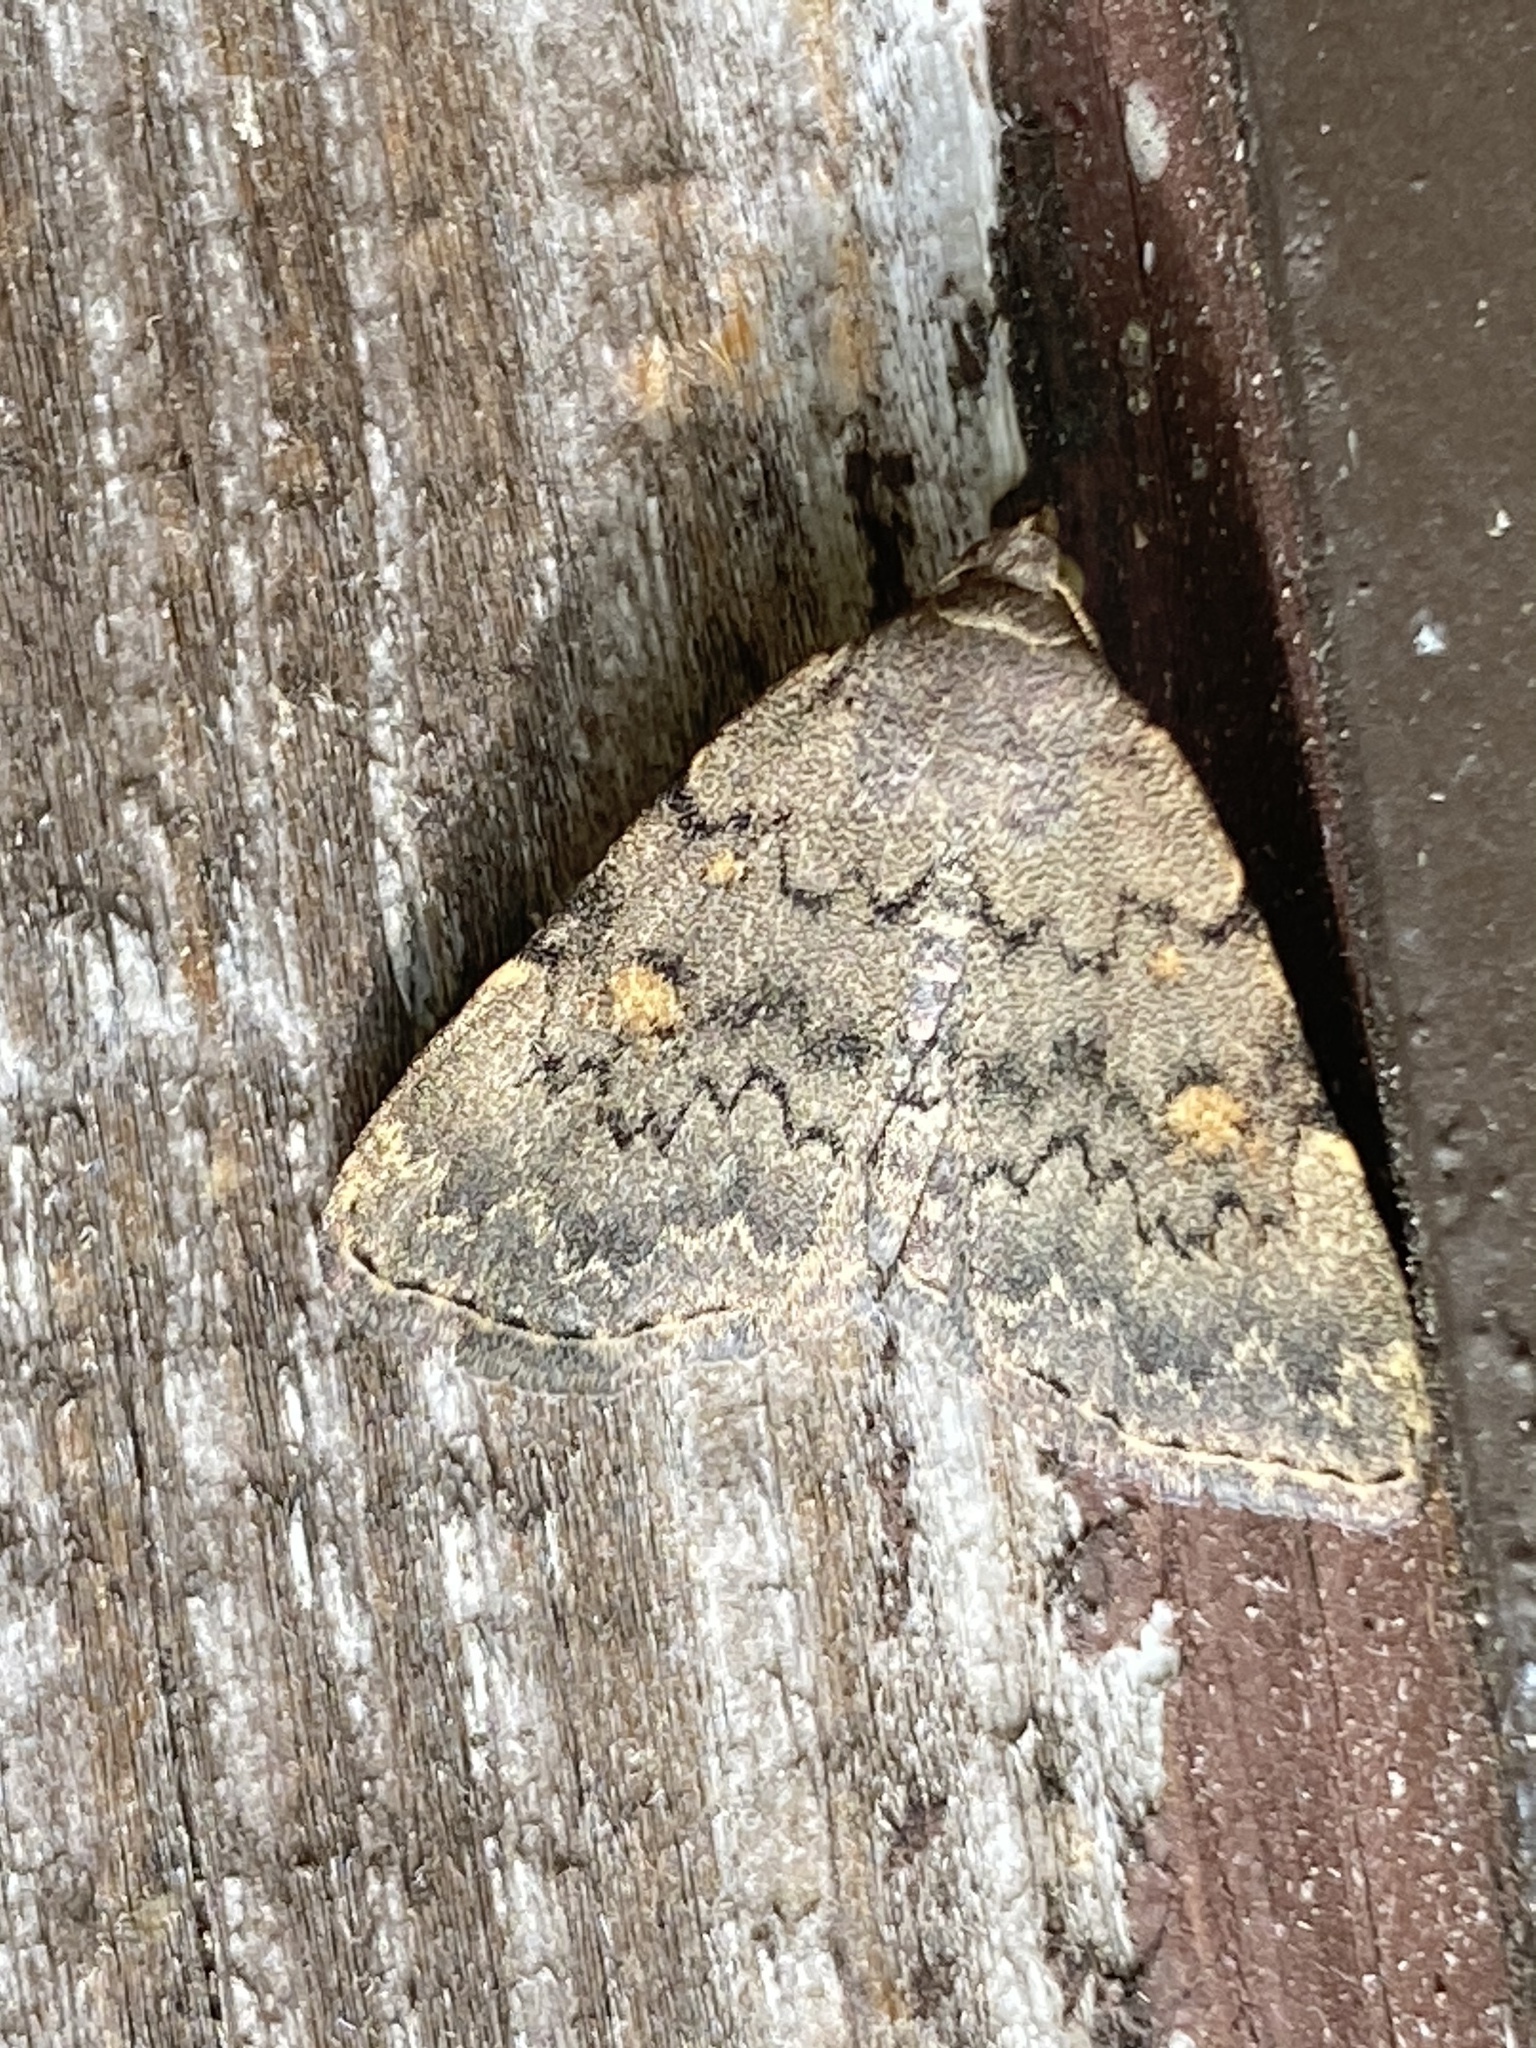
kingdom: Animalia
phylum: Arthropoda
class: Insecta
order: Lepidoptera
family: Erebidae
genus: Idia
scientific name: Idia aemula
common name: Common idia moth
